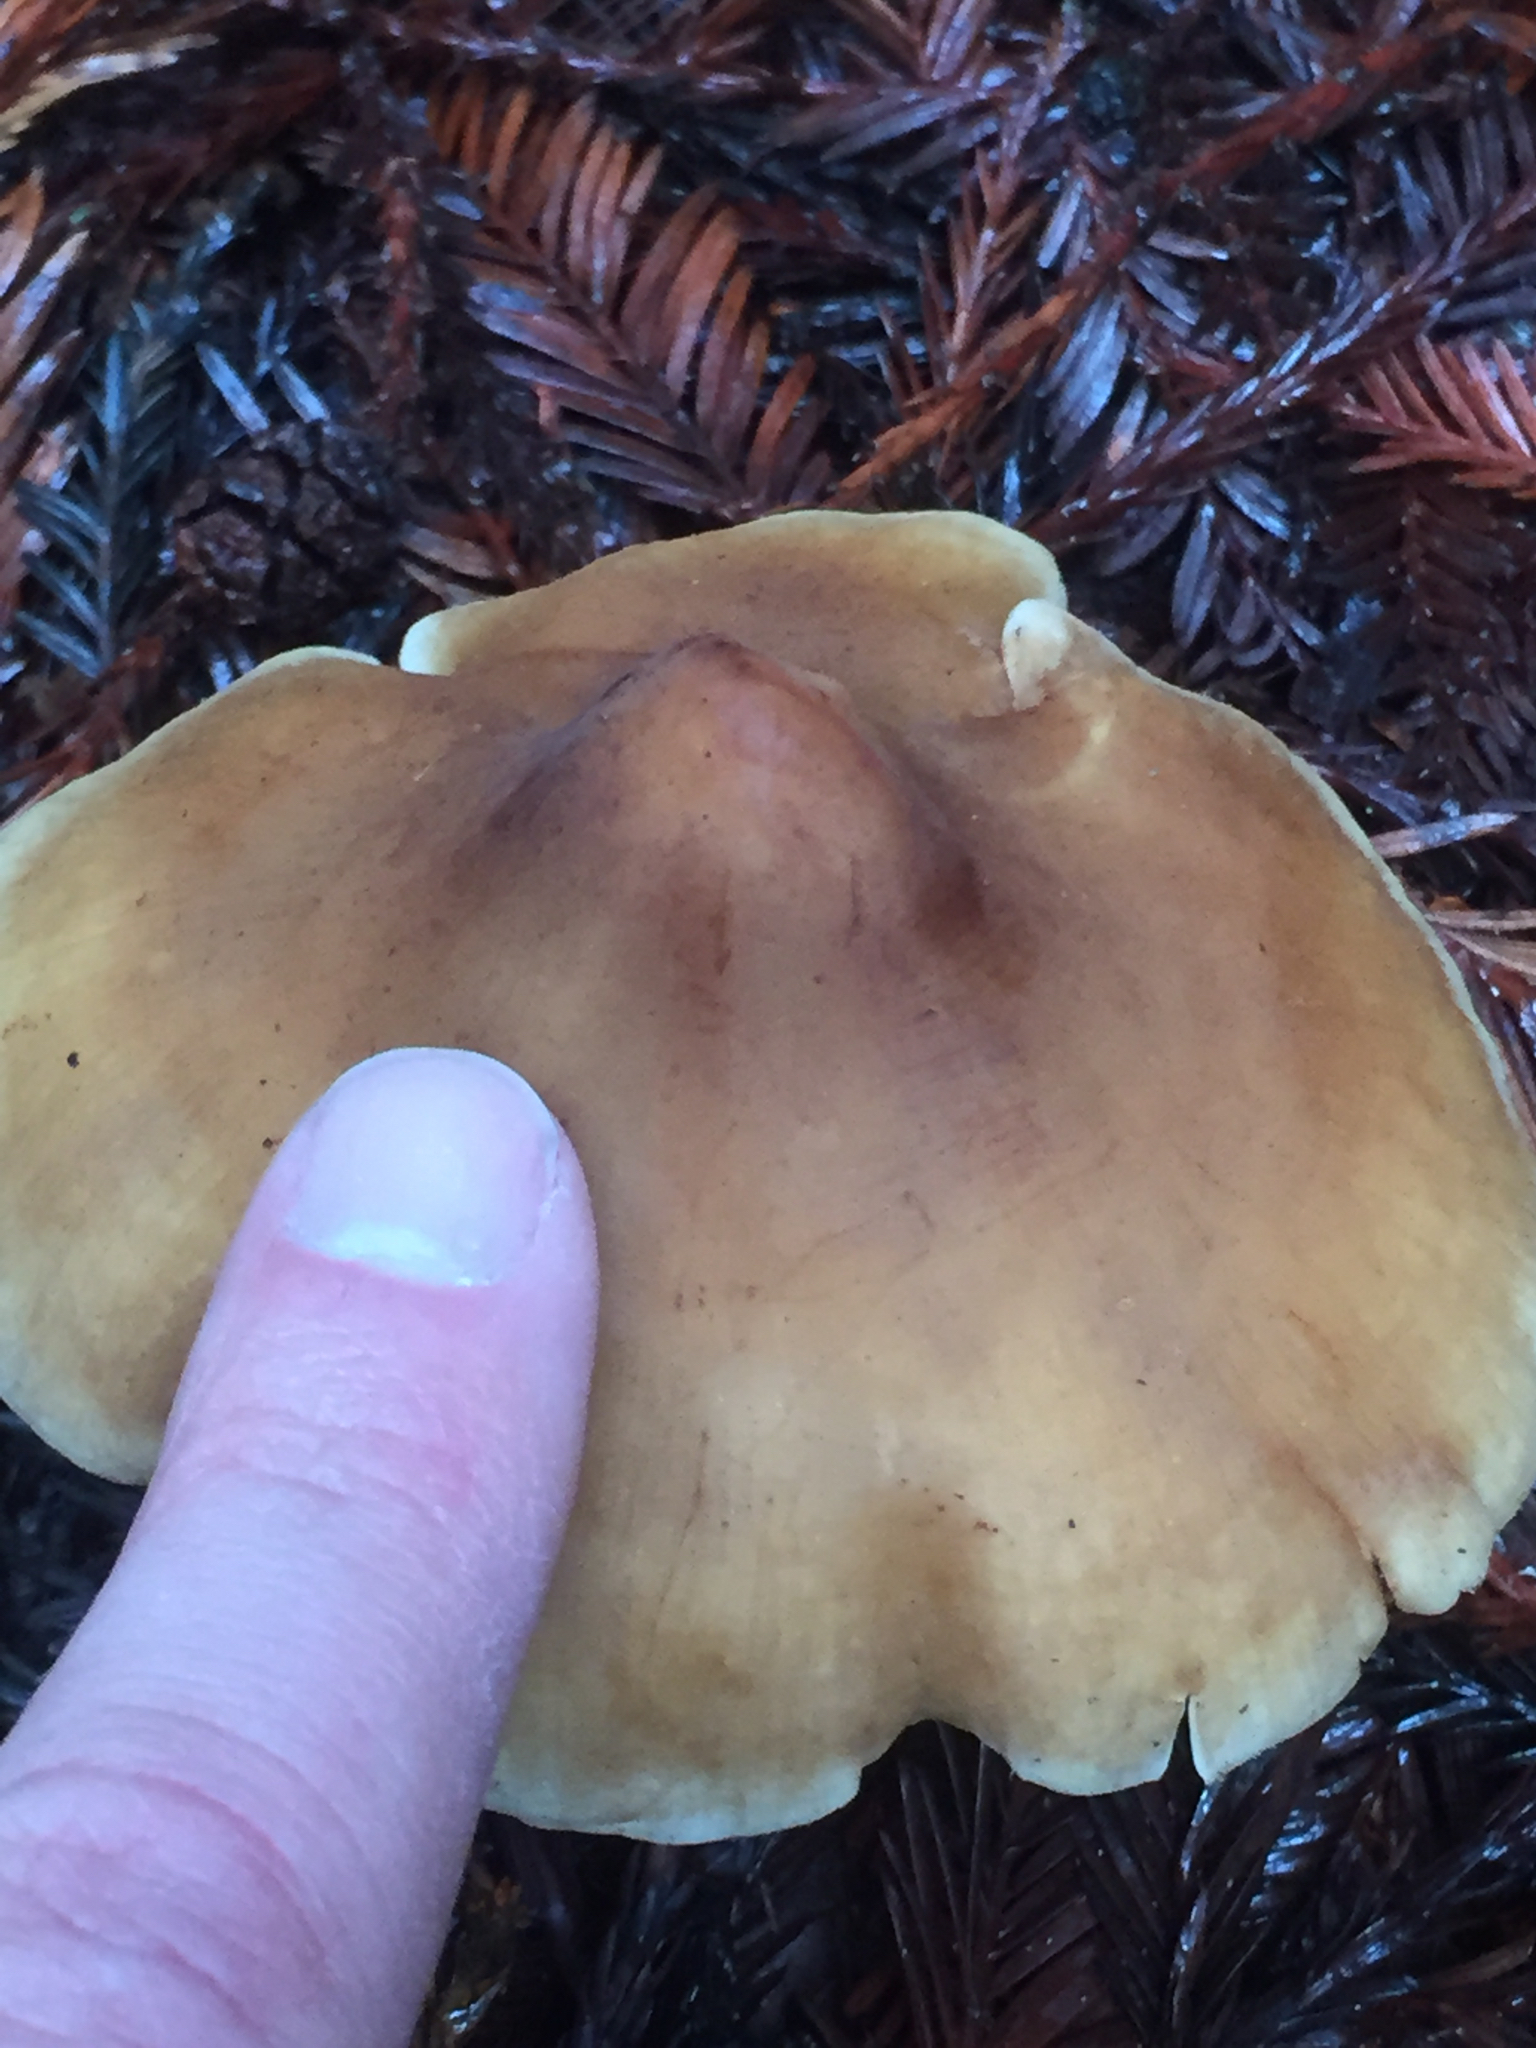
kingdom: Fungi
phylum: Basidiomycota
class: Agaricomycetes
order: Agaricales
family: Tricholomataceae
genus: Caulorhiza
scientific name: Caulorhiza umbonata
